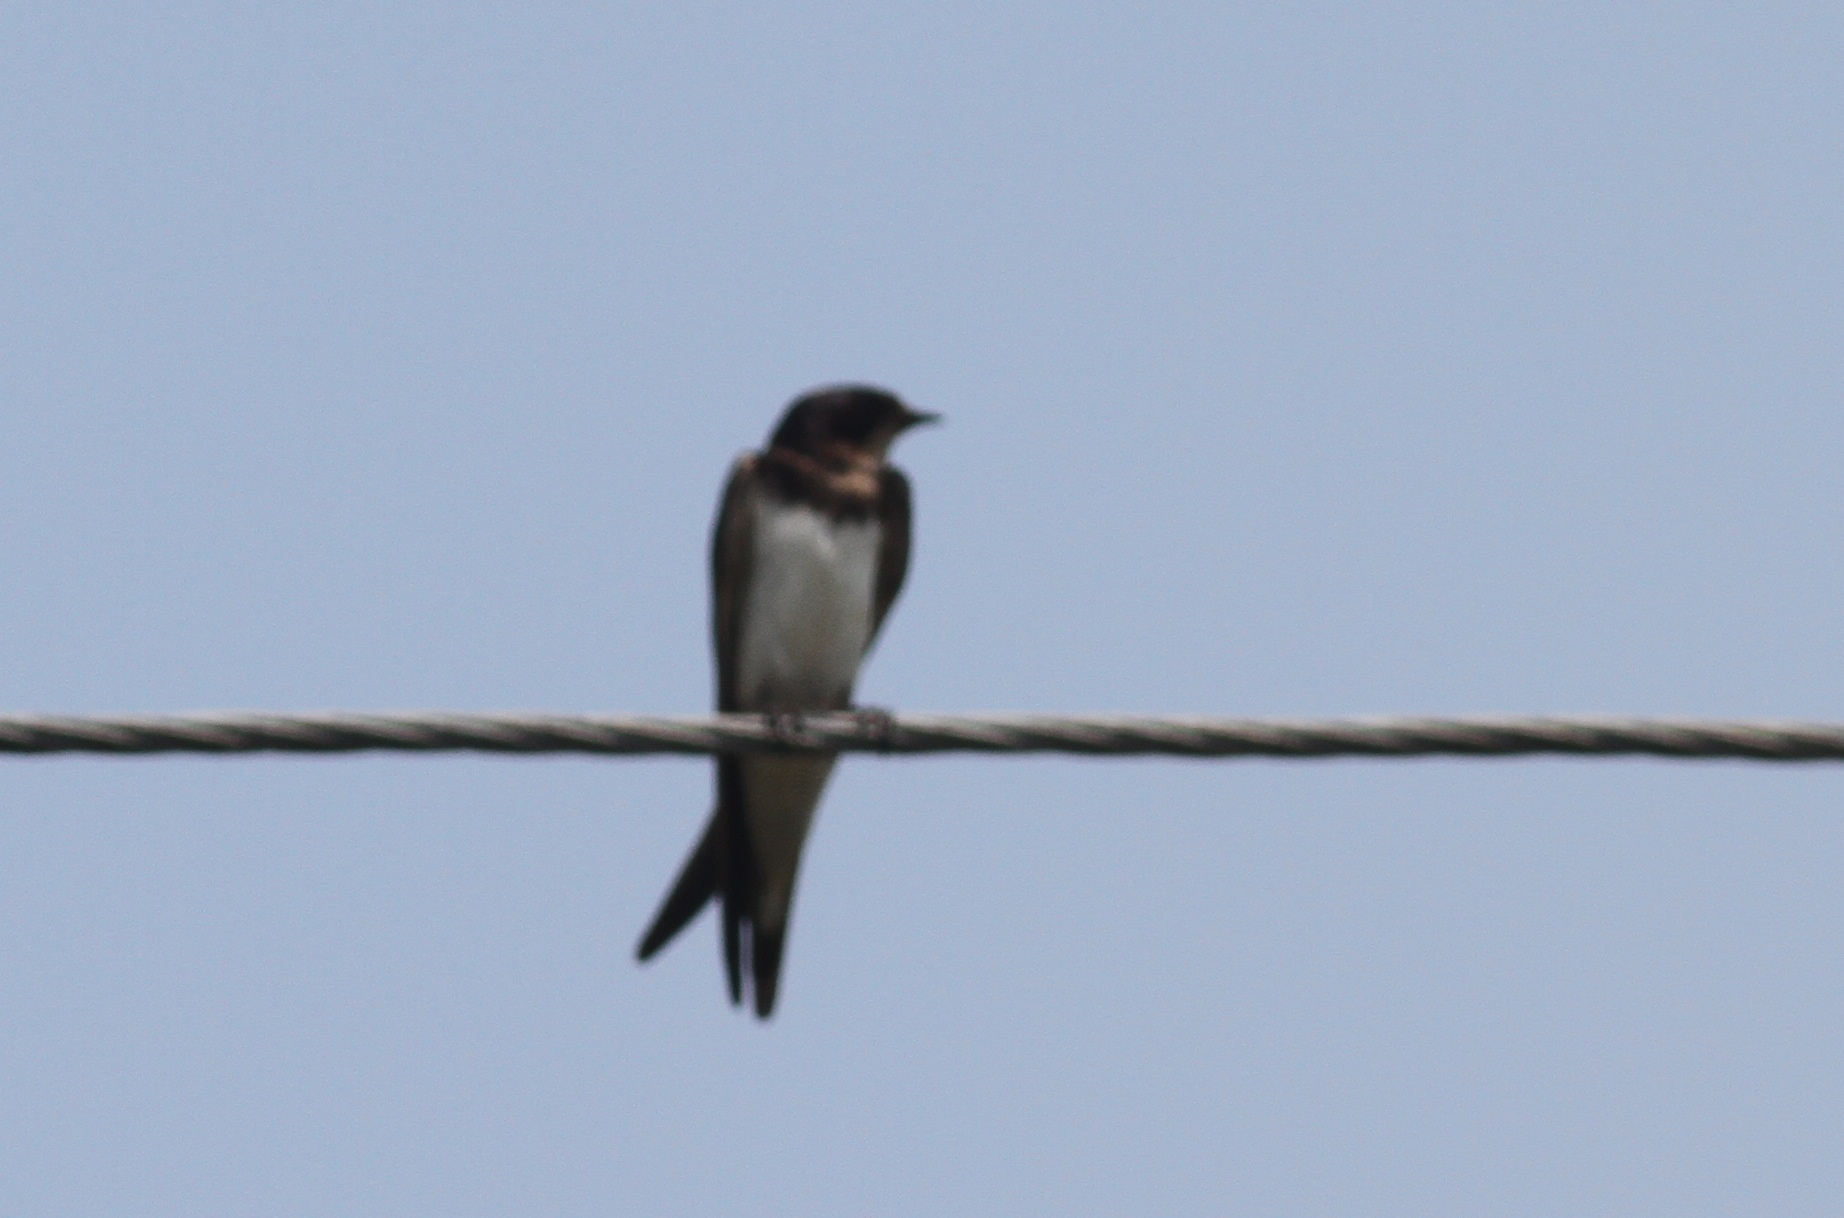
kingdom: Animalia
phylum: Chordata
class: Aves
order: Passeriformes
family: Hirundinidae
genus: Hirundo
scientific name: Hirundo rustica
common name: Barn swallow
